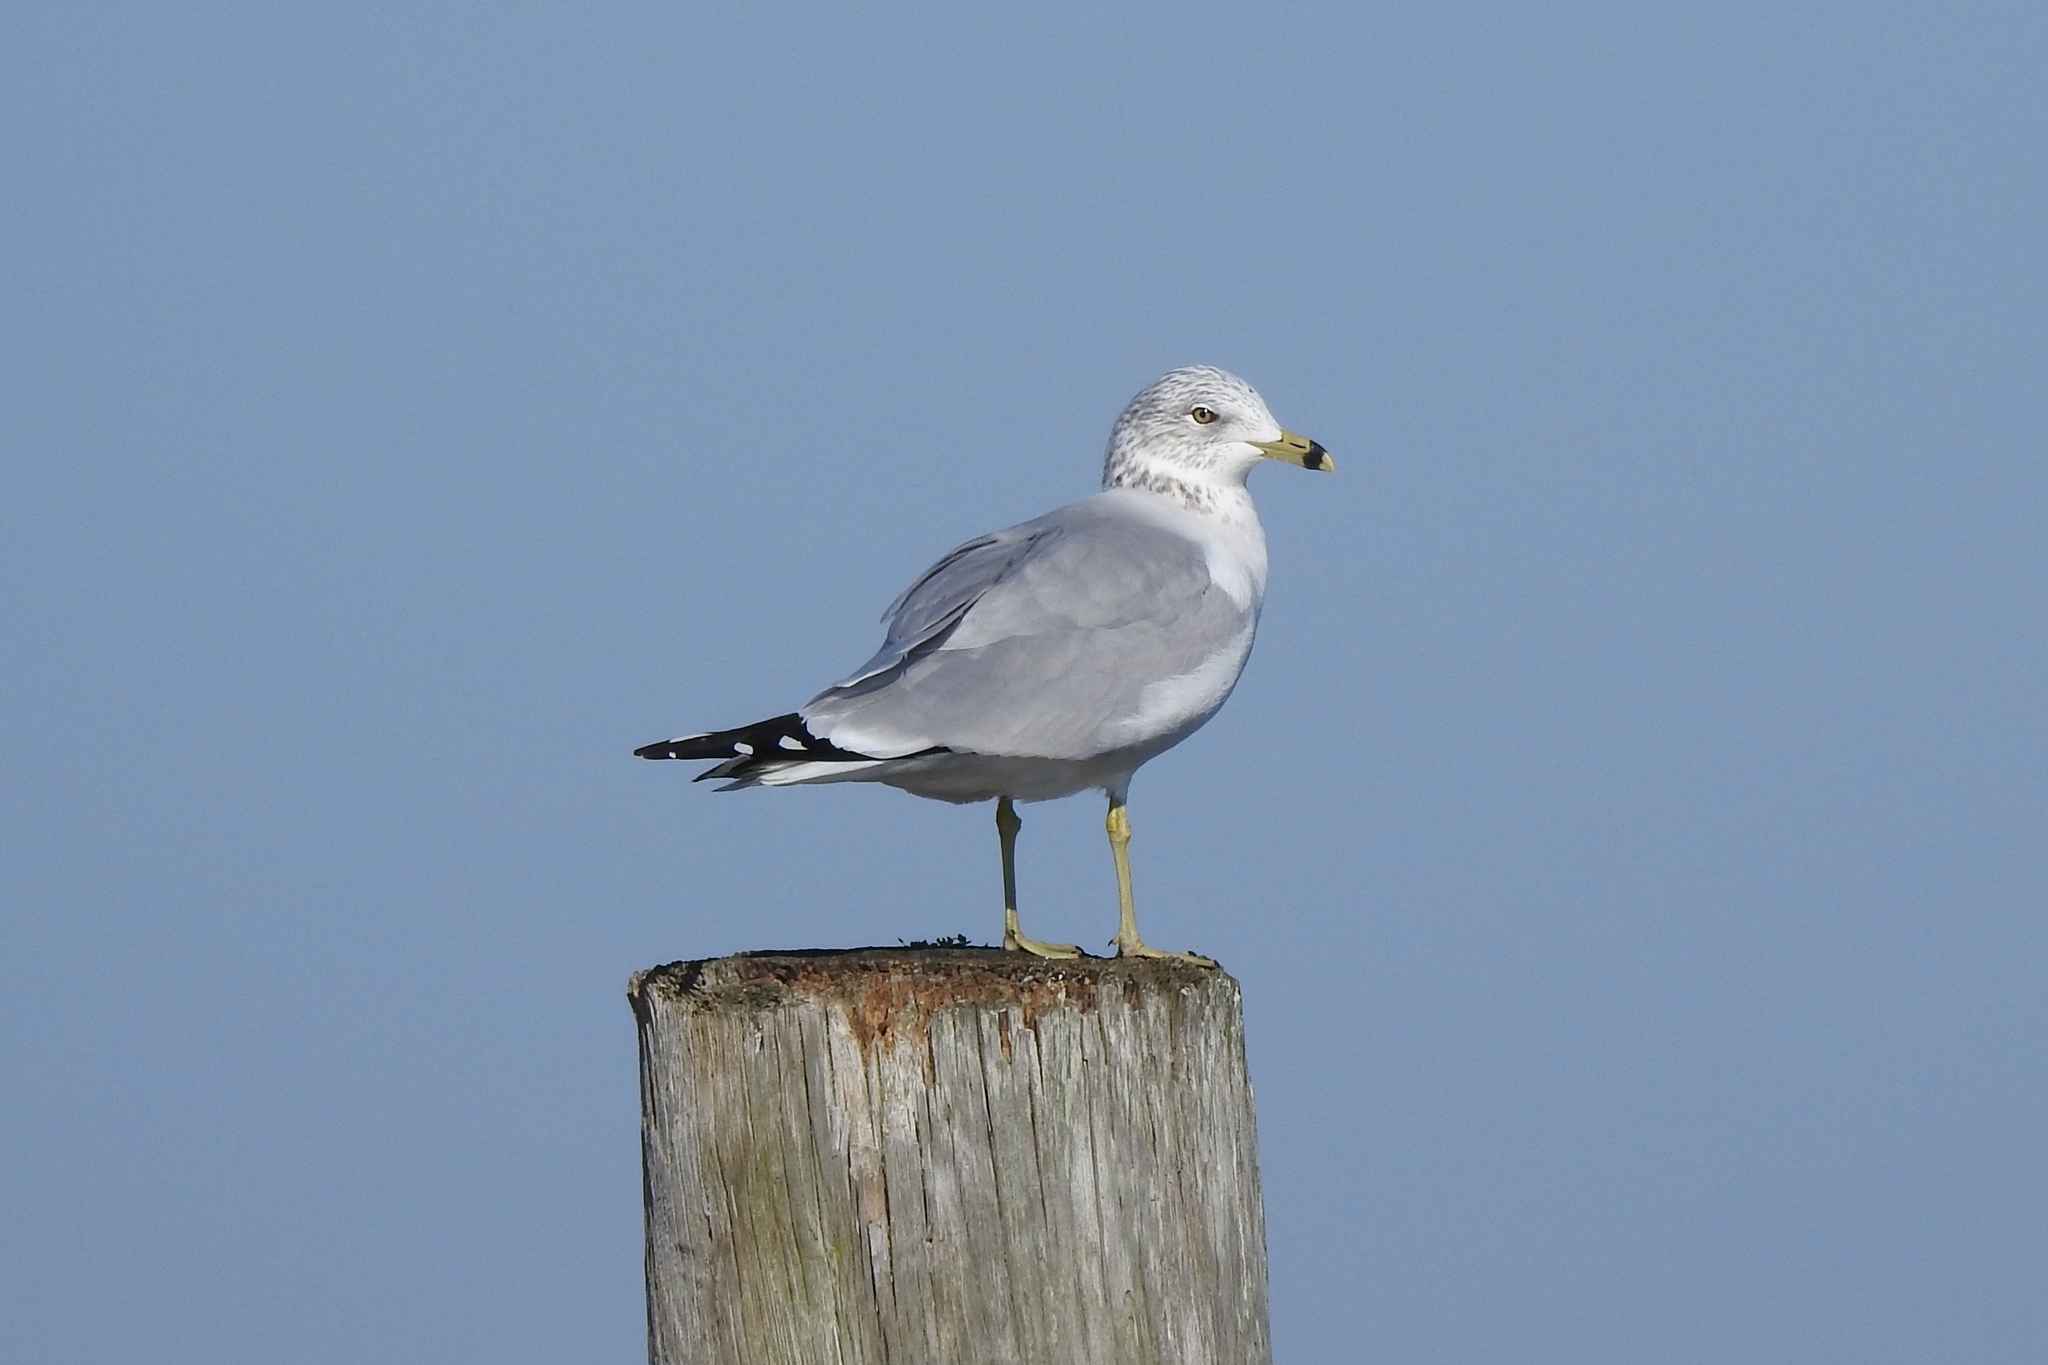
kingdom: Animalia
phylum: Chordata
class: Aves
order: Charadriiformes
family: Laridae
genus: Larus
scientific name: Larus delawarensis
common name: Ring-billed gull
